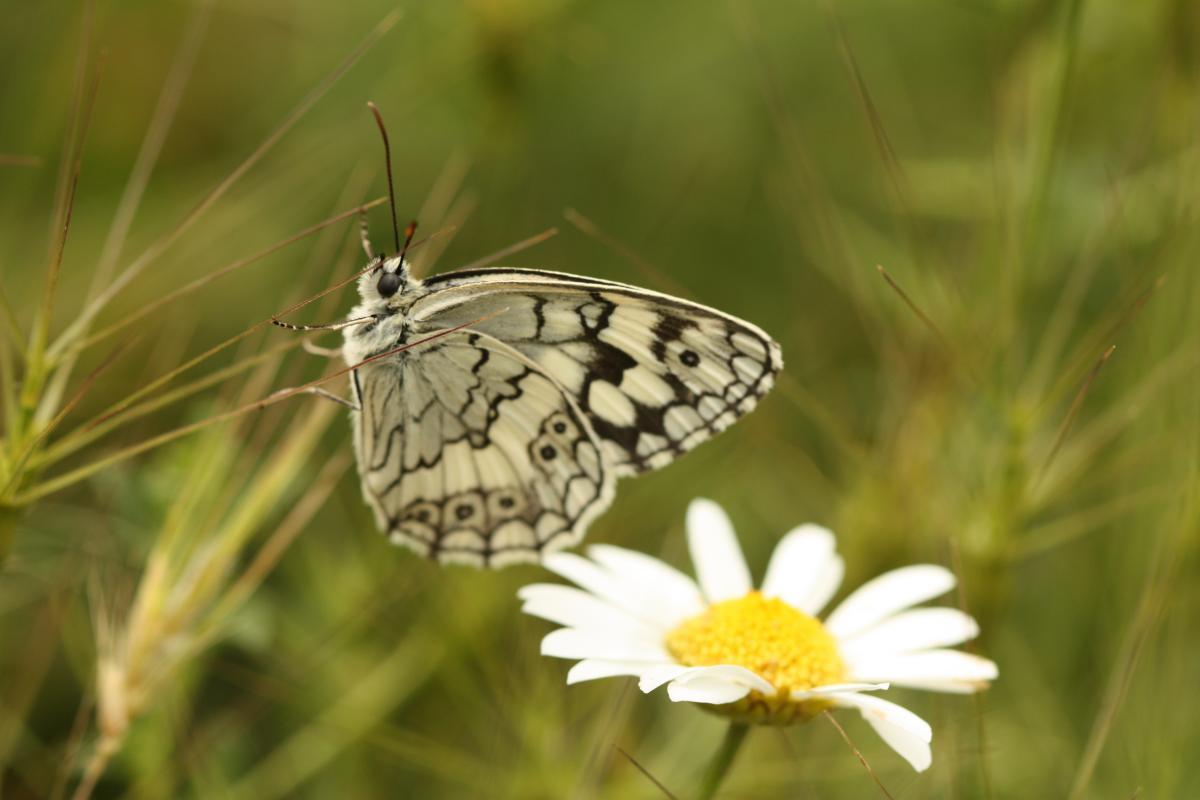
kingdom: Animalia
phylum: Arthropoda
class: Insecta
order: Lepidoptera
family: Nymphalidae
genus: Melanargia
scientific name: Melanargia larissa
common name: Balkan marbled white
